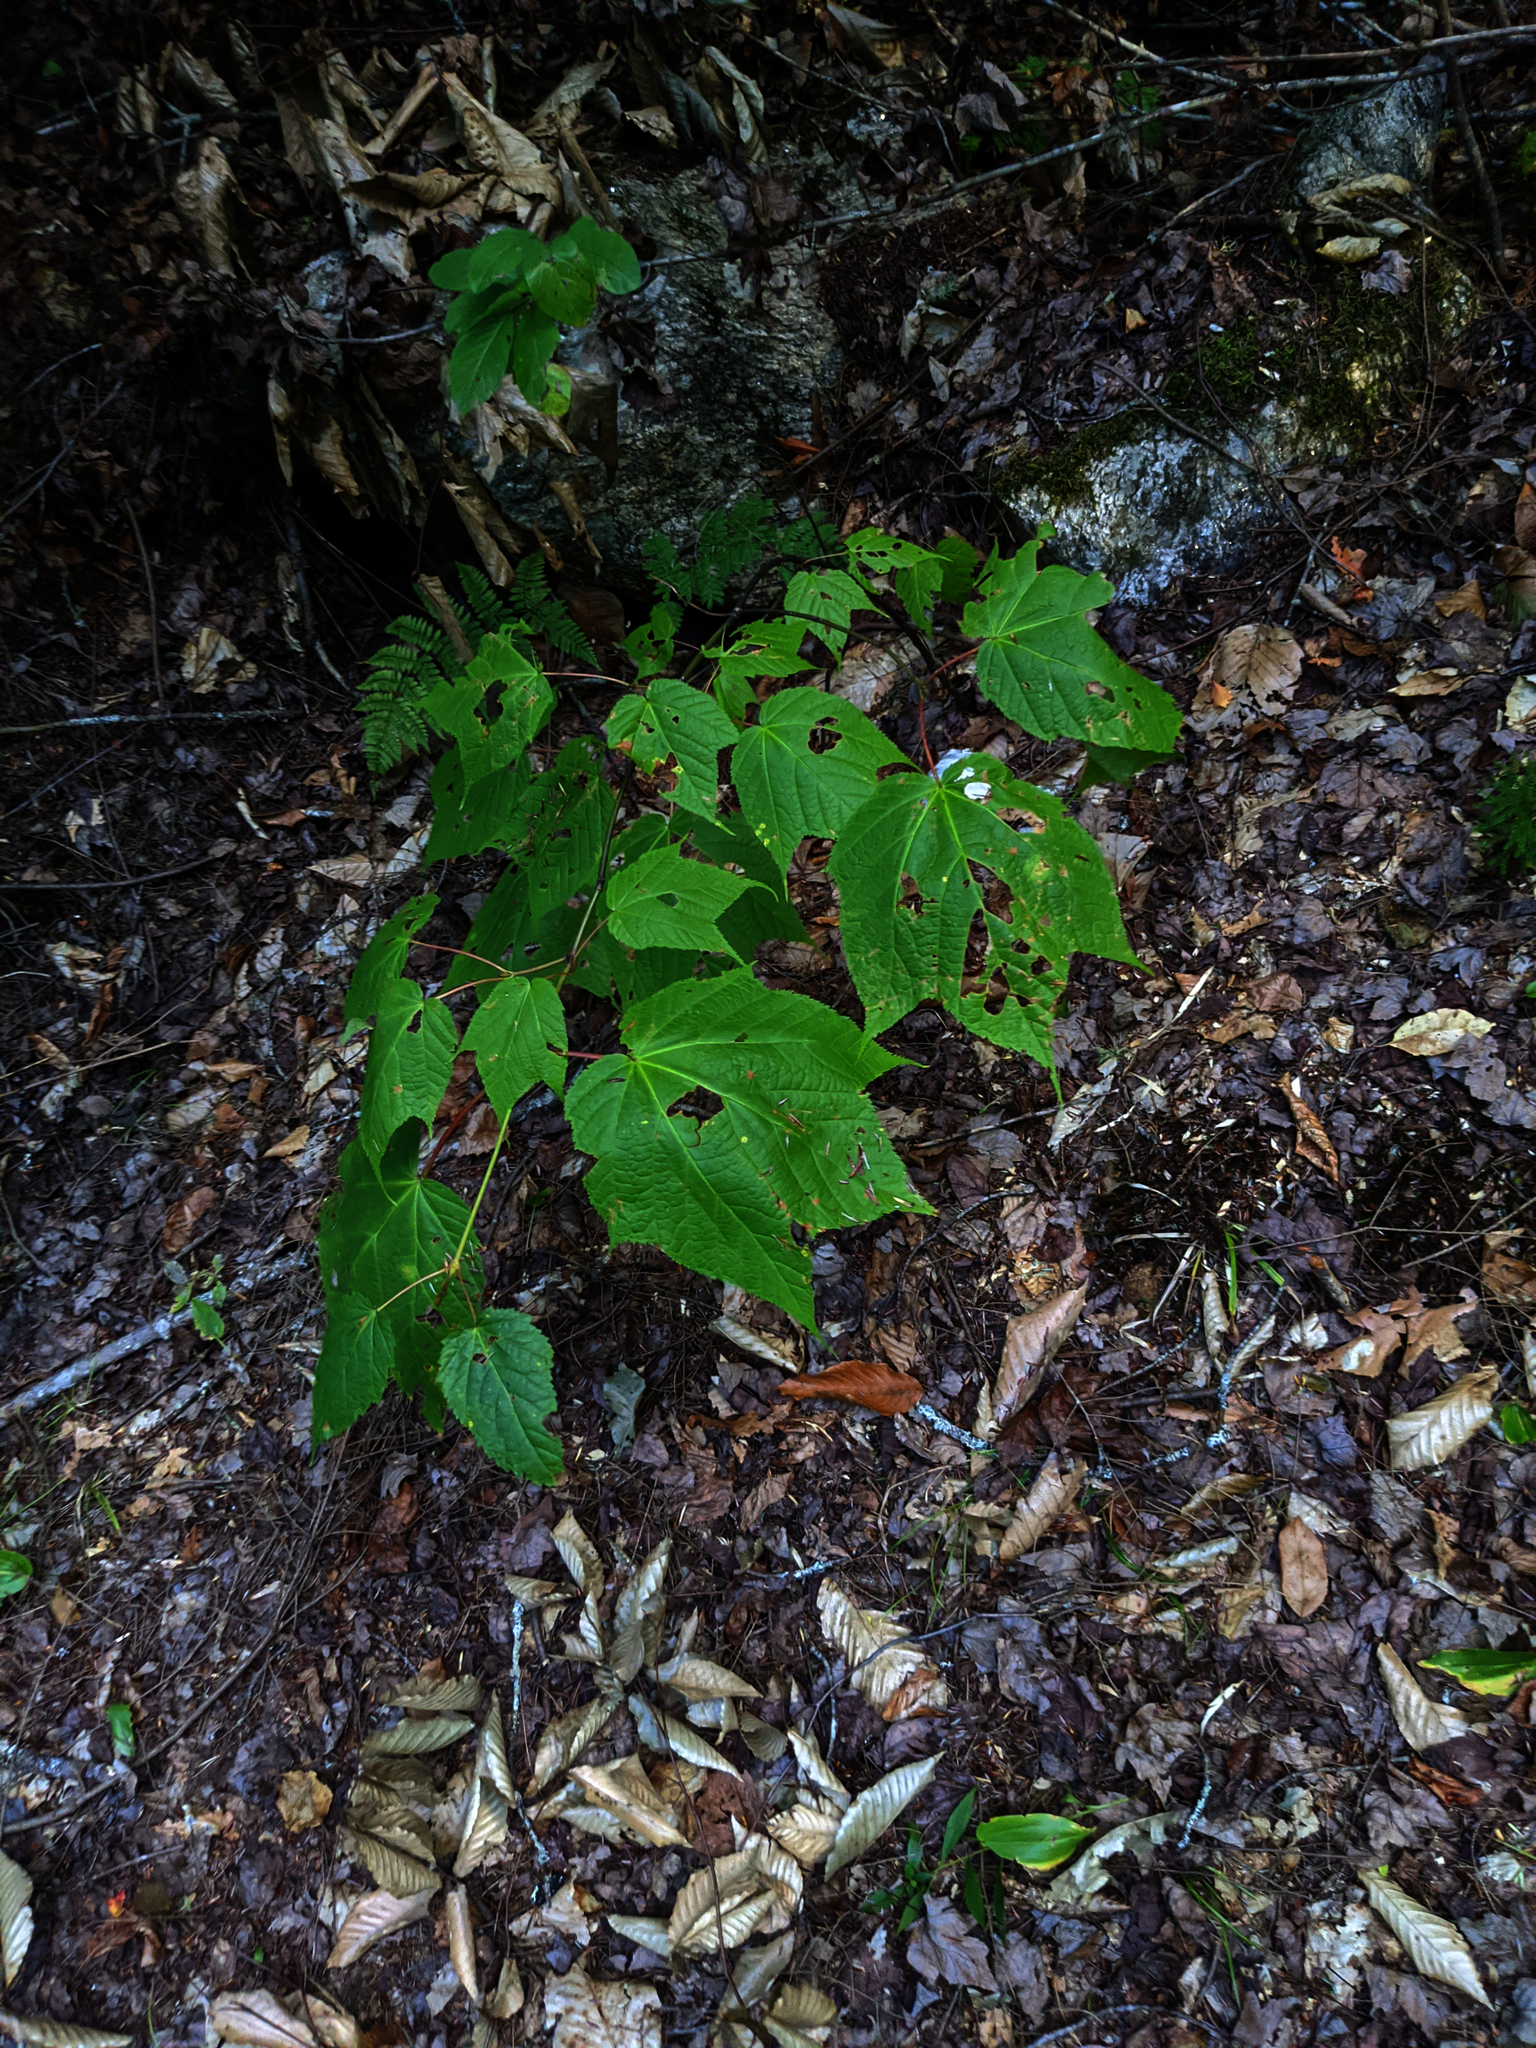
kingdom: Plantae
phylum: Tracheophyta
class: Magnoliopsida
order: Sapindales
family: Sapindaceae
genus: Acer
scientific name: Acer pensylvanicum
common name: Moosewood
